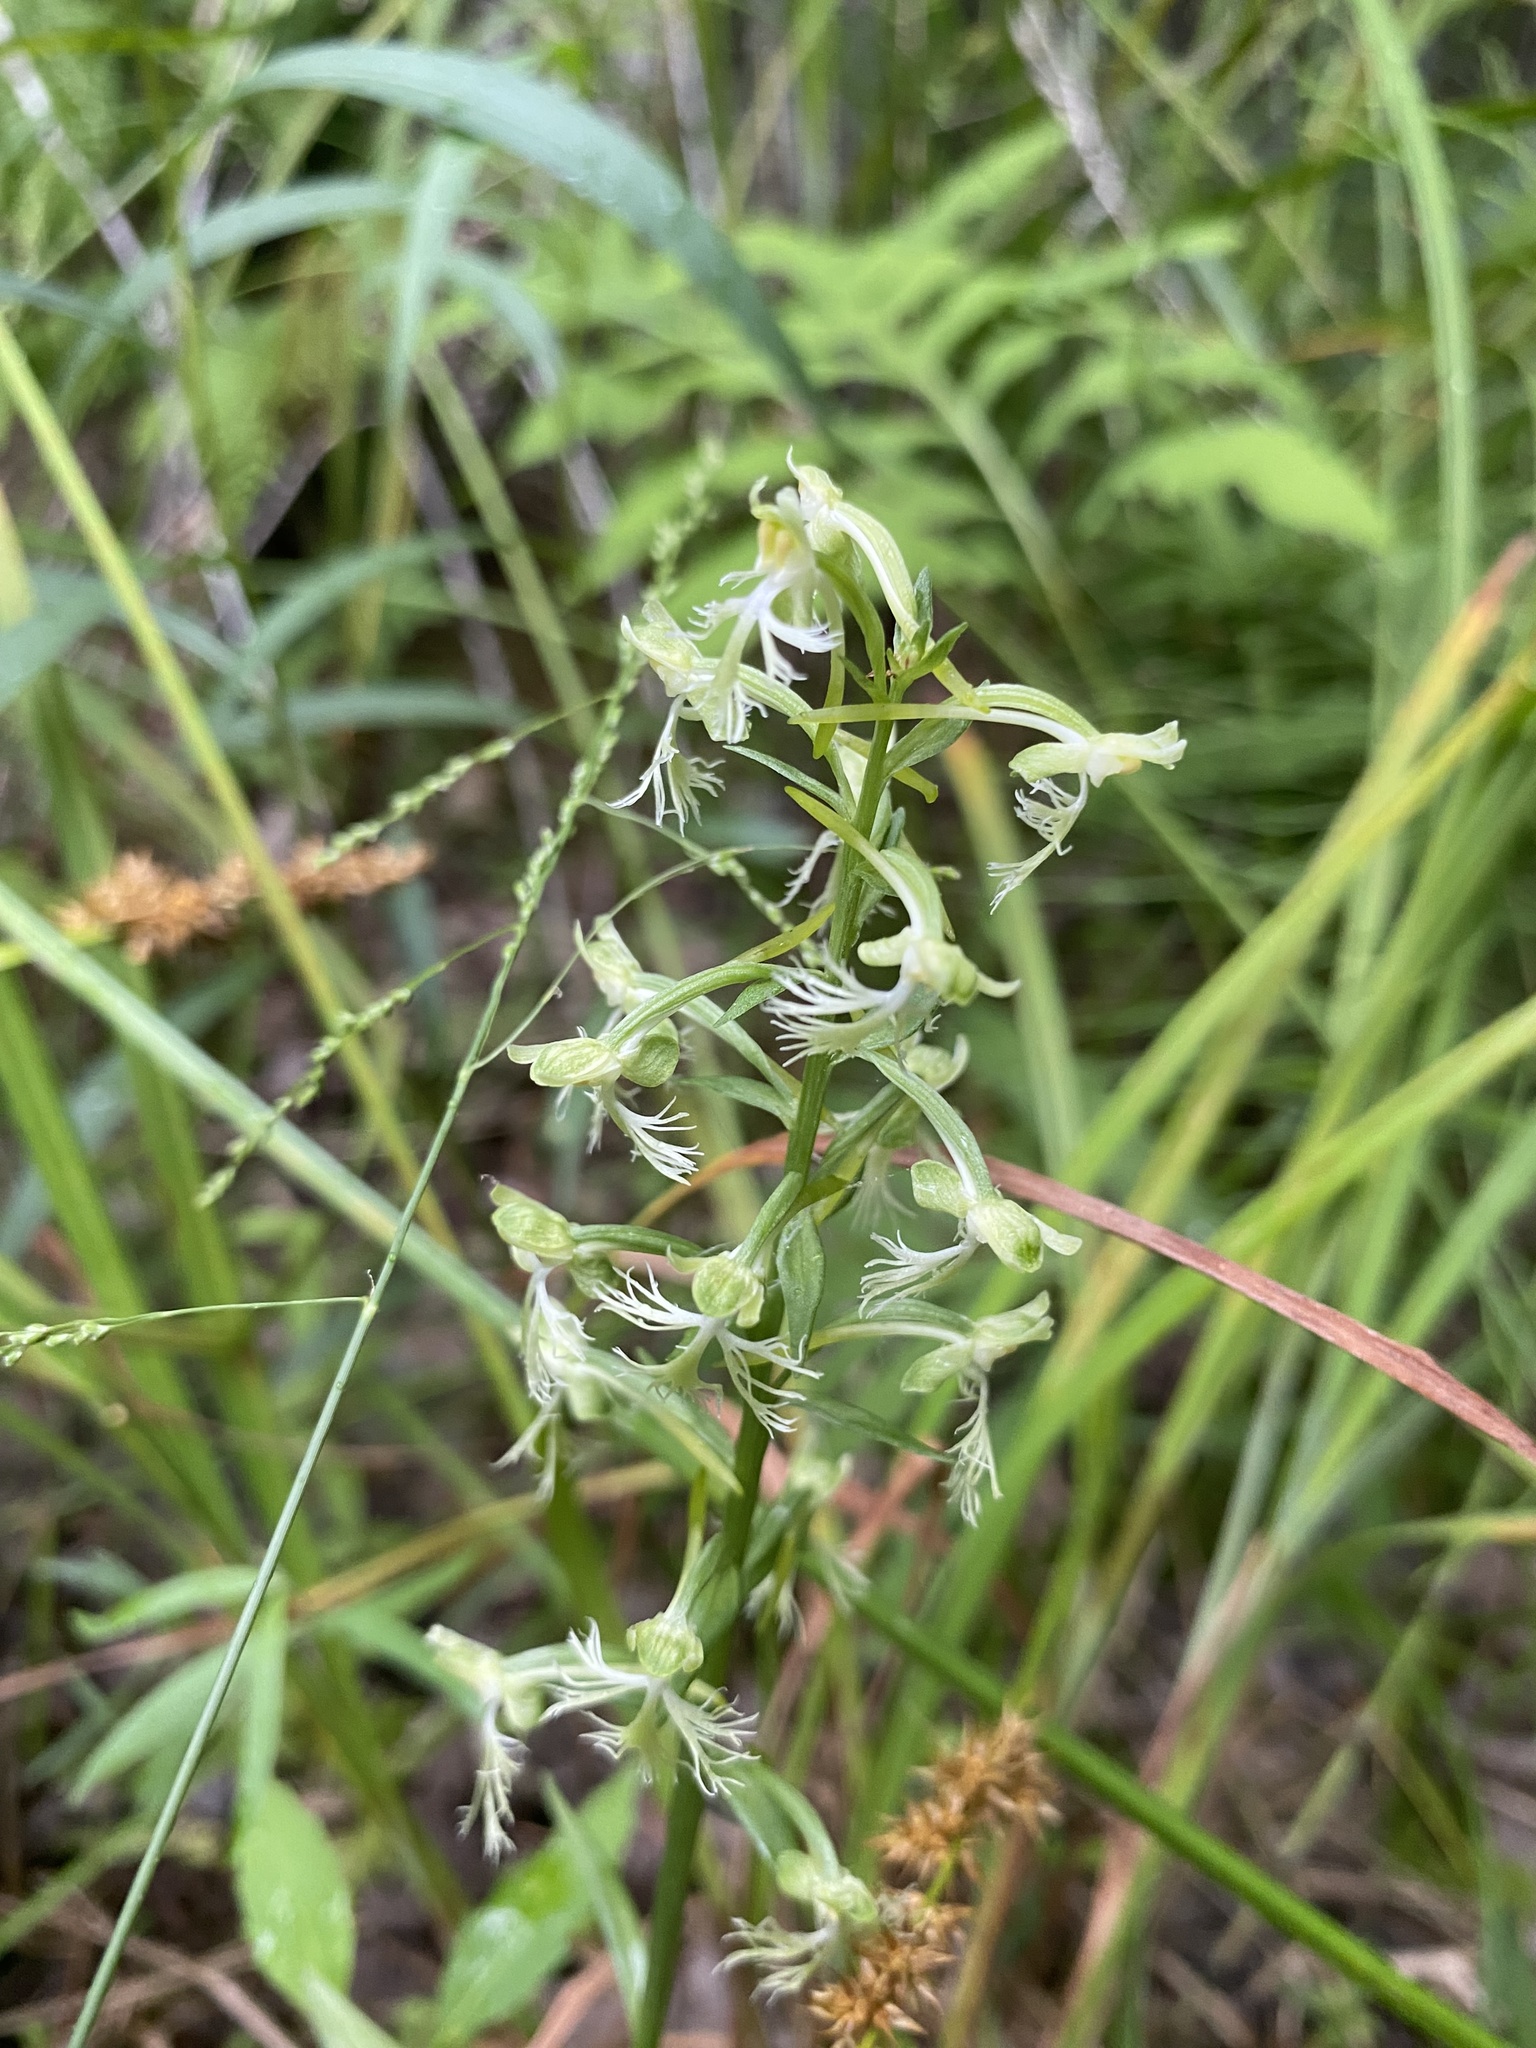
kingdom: Plantae
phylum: Tracheophyta
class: Liliopsida
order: Asparagales
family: Orchidaceae
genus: Platanthera
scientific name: Platanthera lacera
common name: Green fringed orchid
